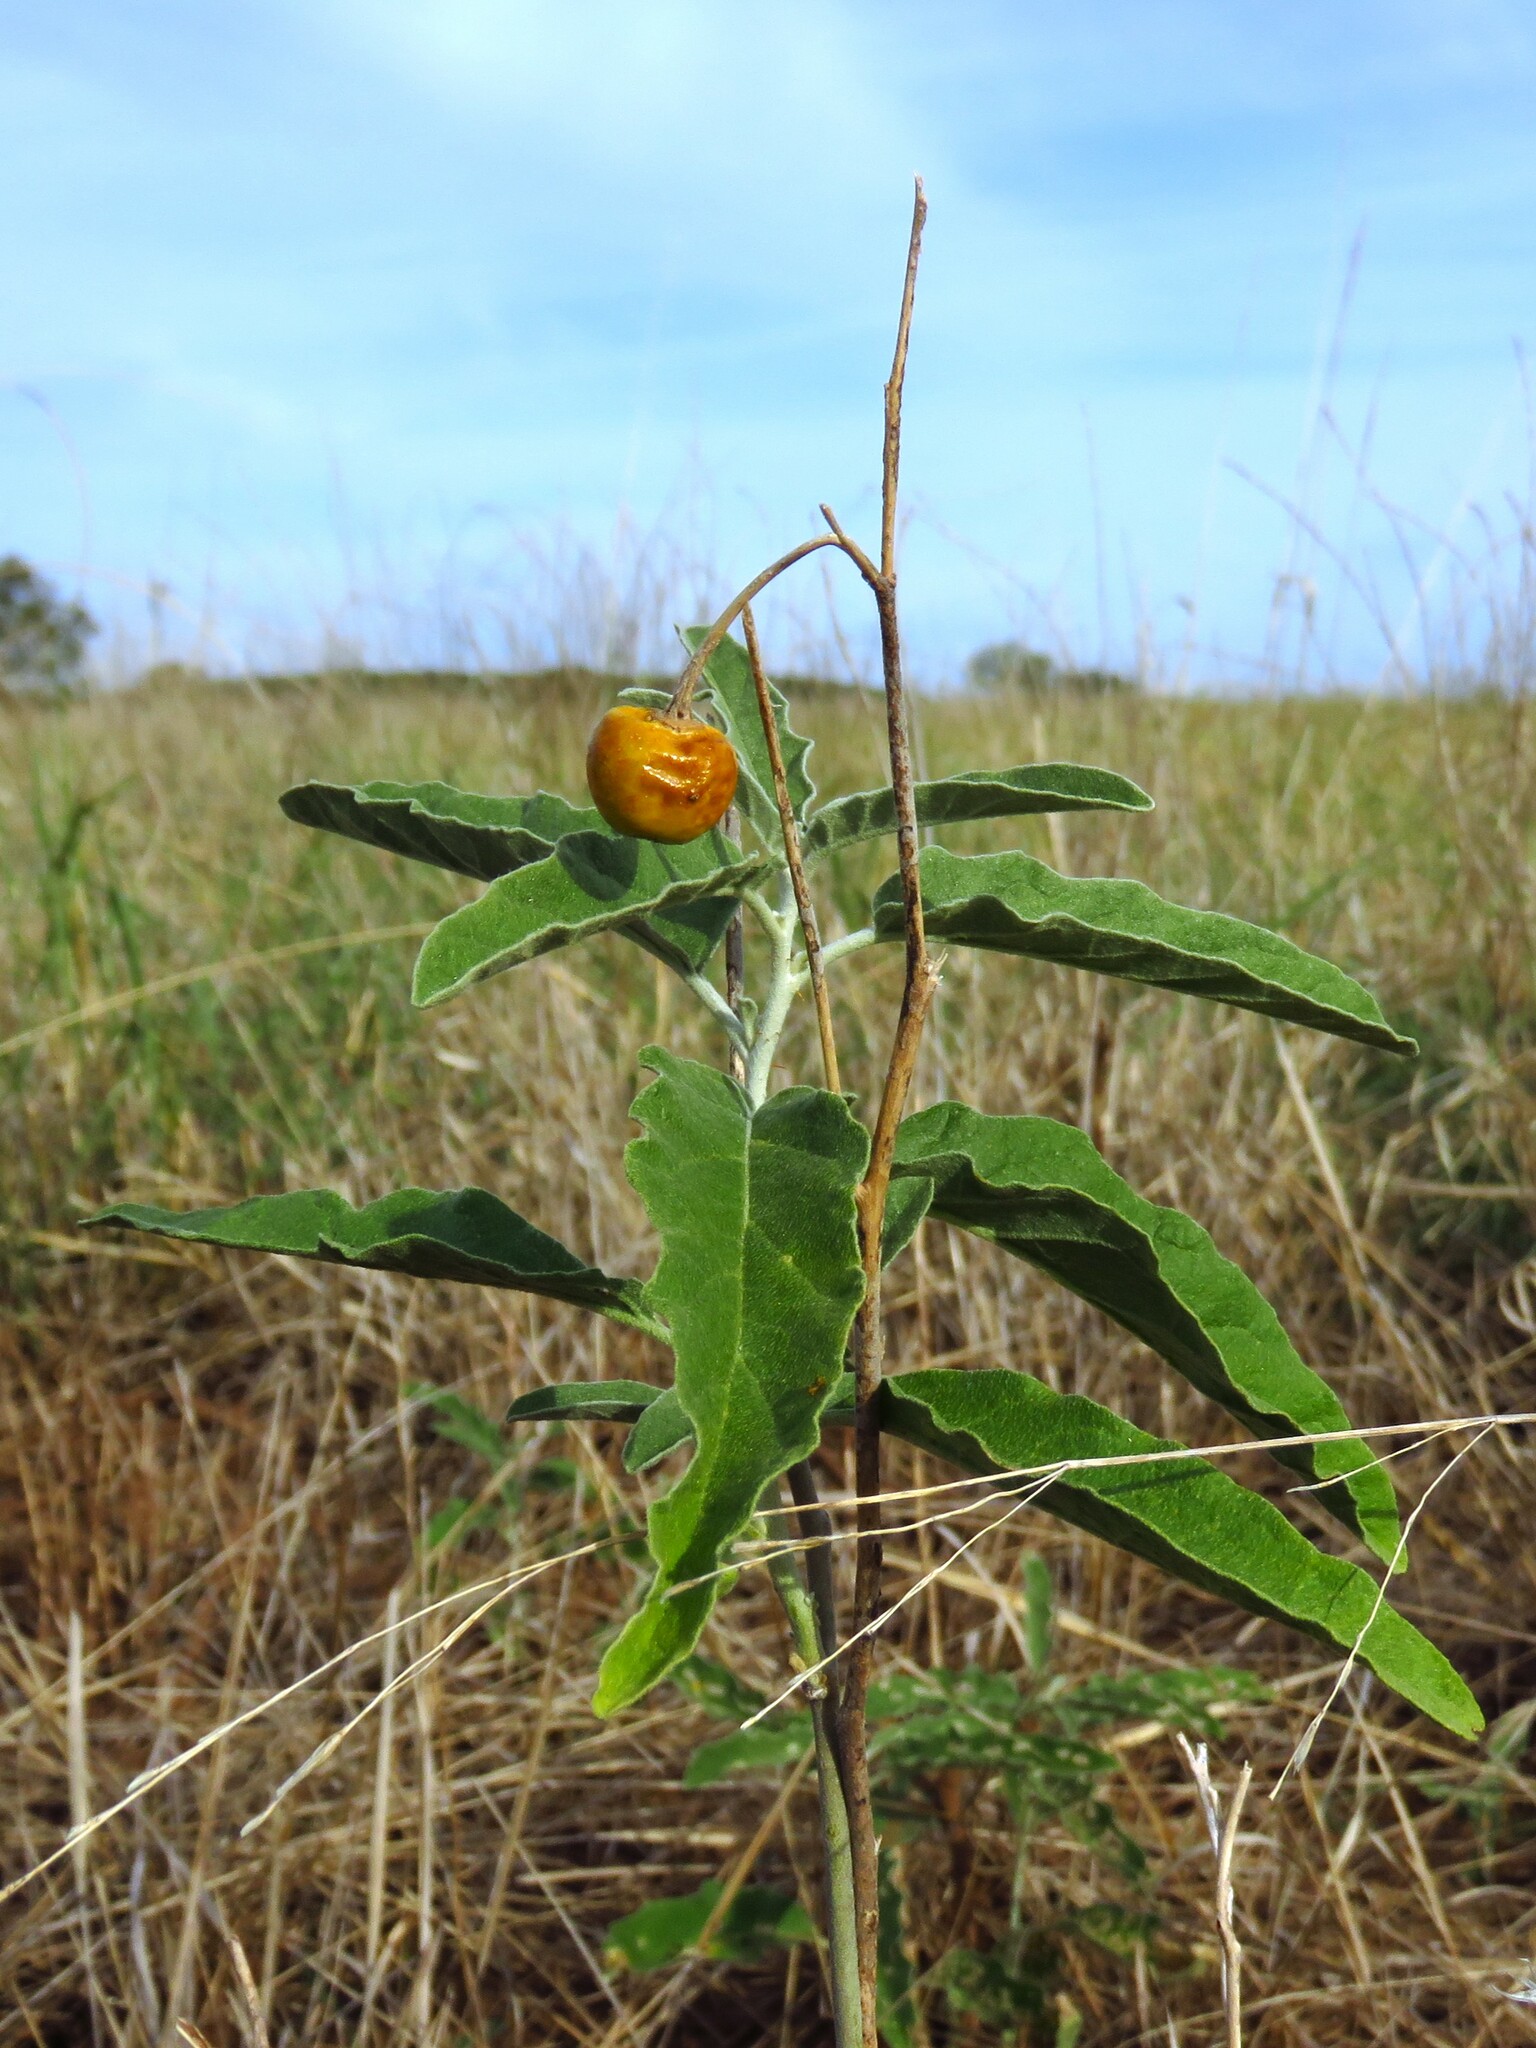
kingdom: Plantae
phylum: Tracheophyta
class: Magnoliopsida
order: Solanales
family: Solanaceae
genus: Solanum
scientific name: Solanum elaeagnifolium
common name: Silverleaf nightshade
